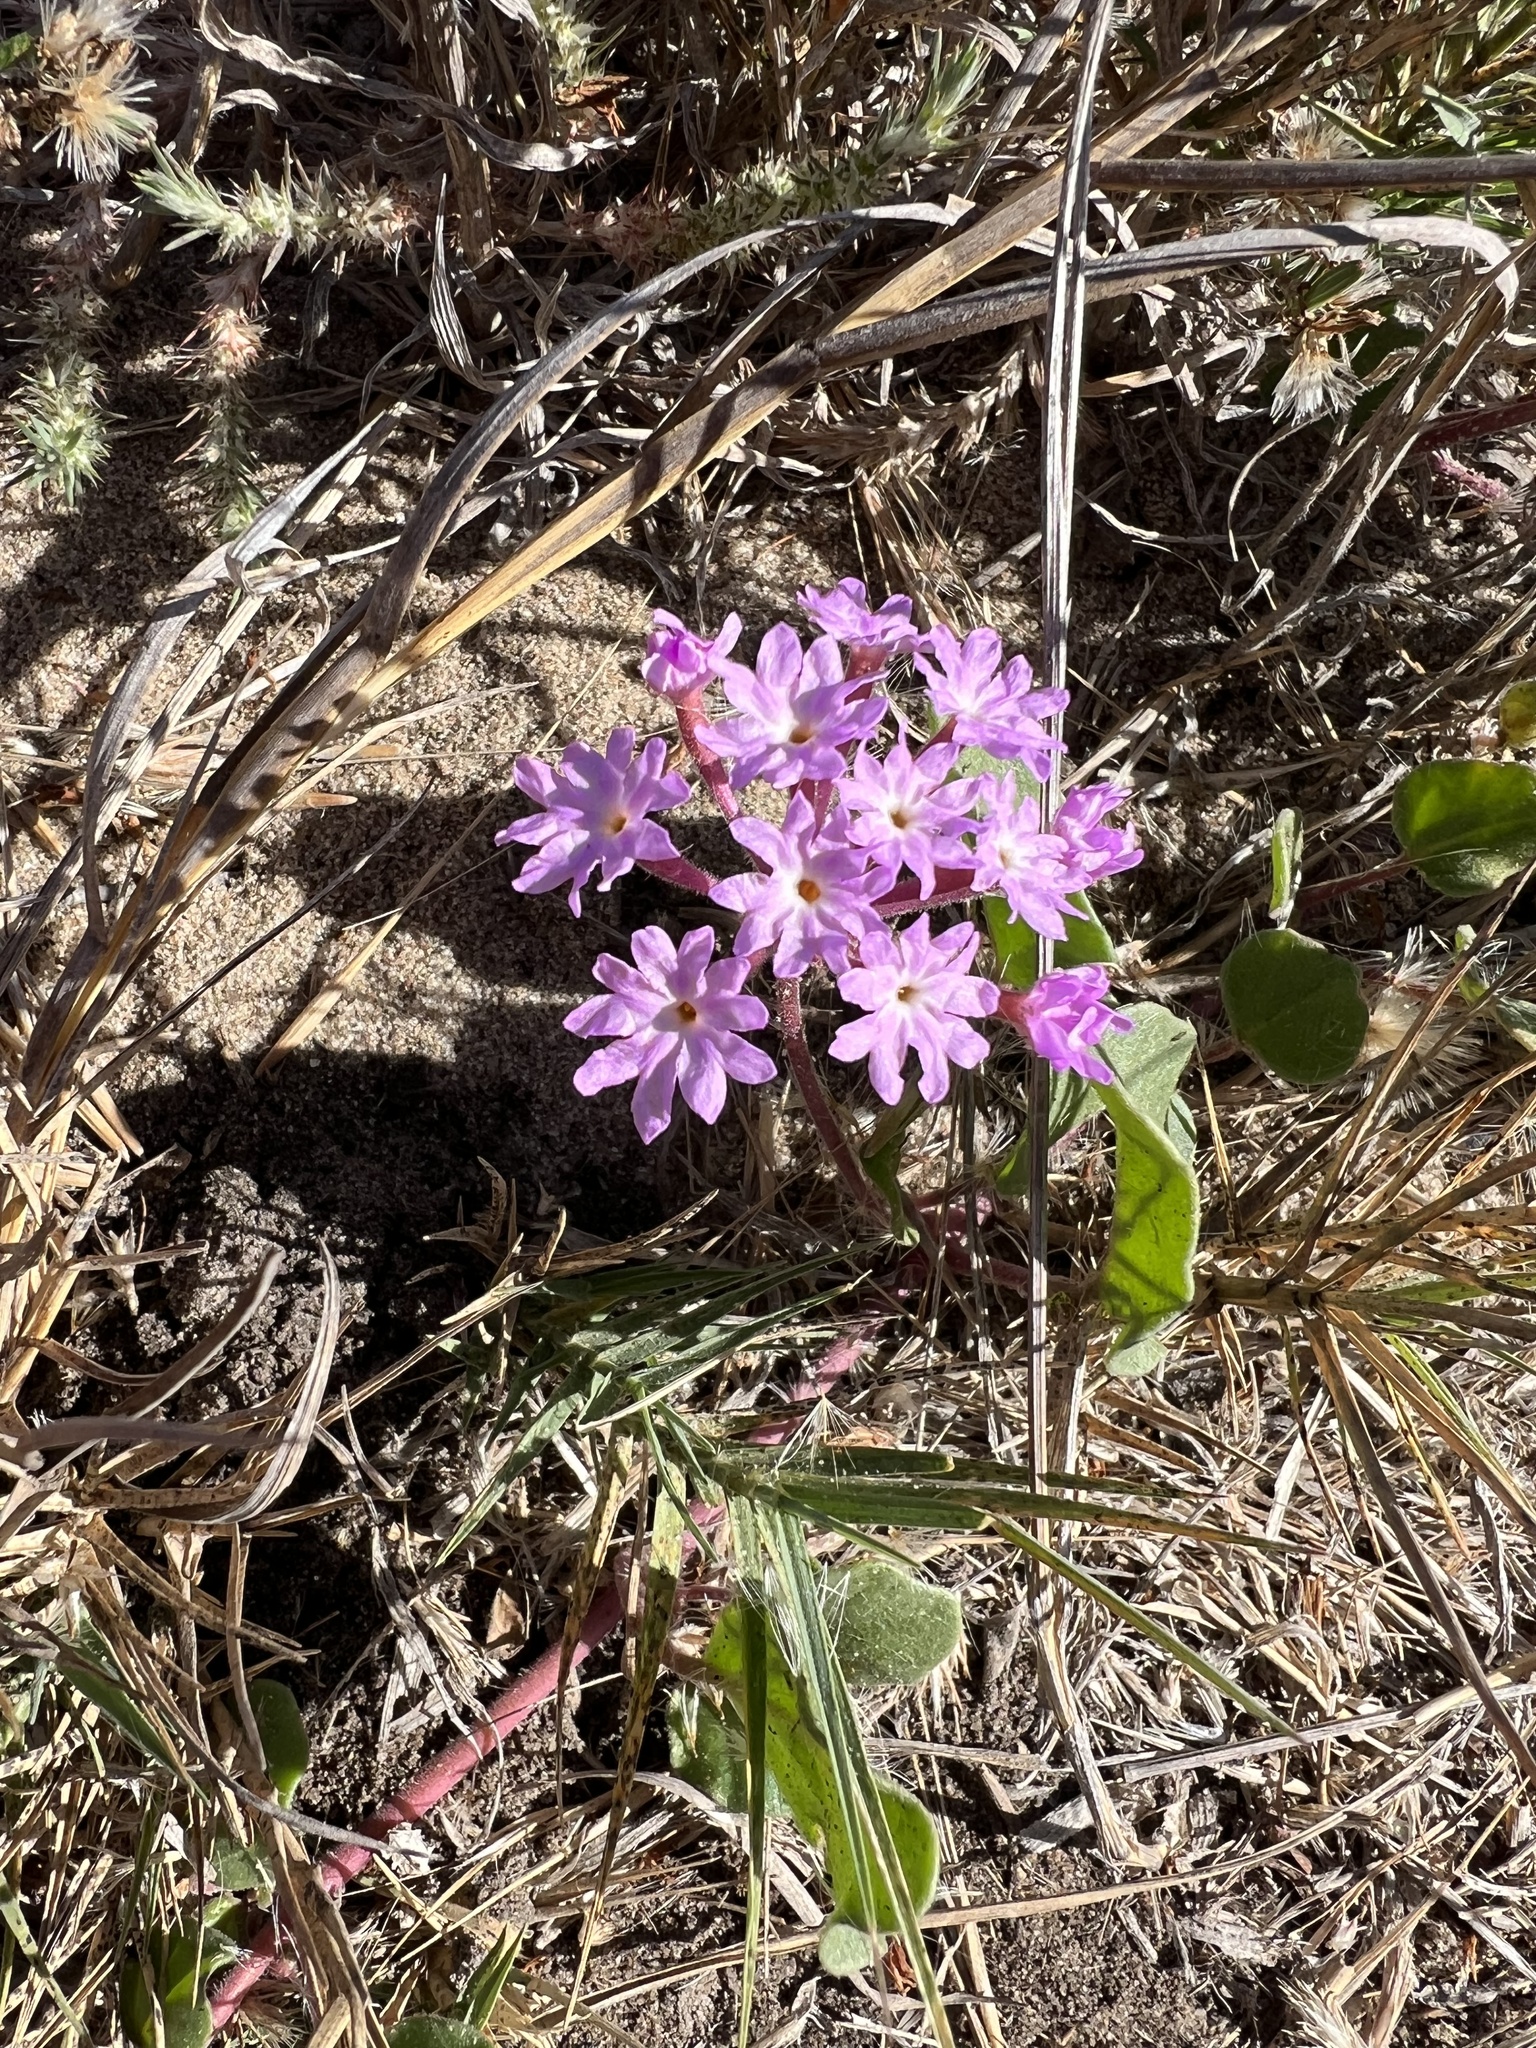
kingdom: Plantae
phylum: Tracheophyta
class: Magnoliopsida
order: Caryophyllales
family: Nyctaginaceae
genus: Abronia
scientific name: Abronia umbellata
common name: Sand-verbena
